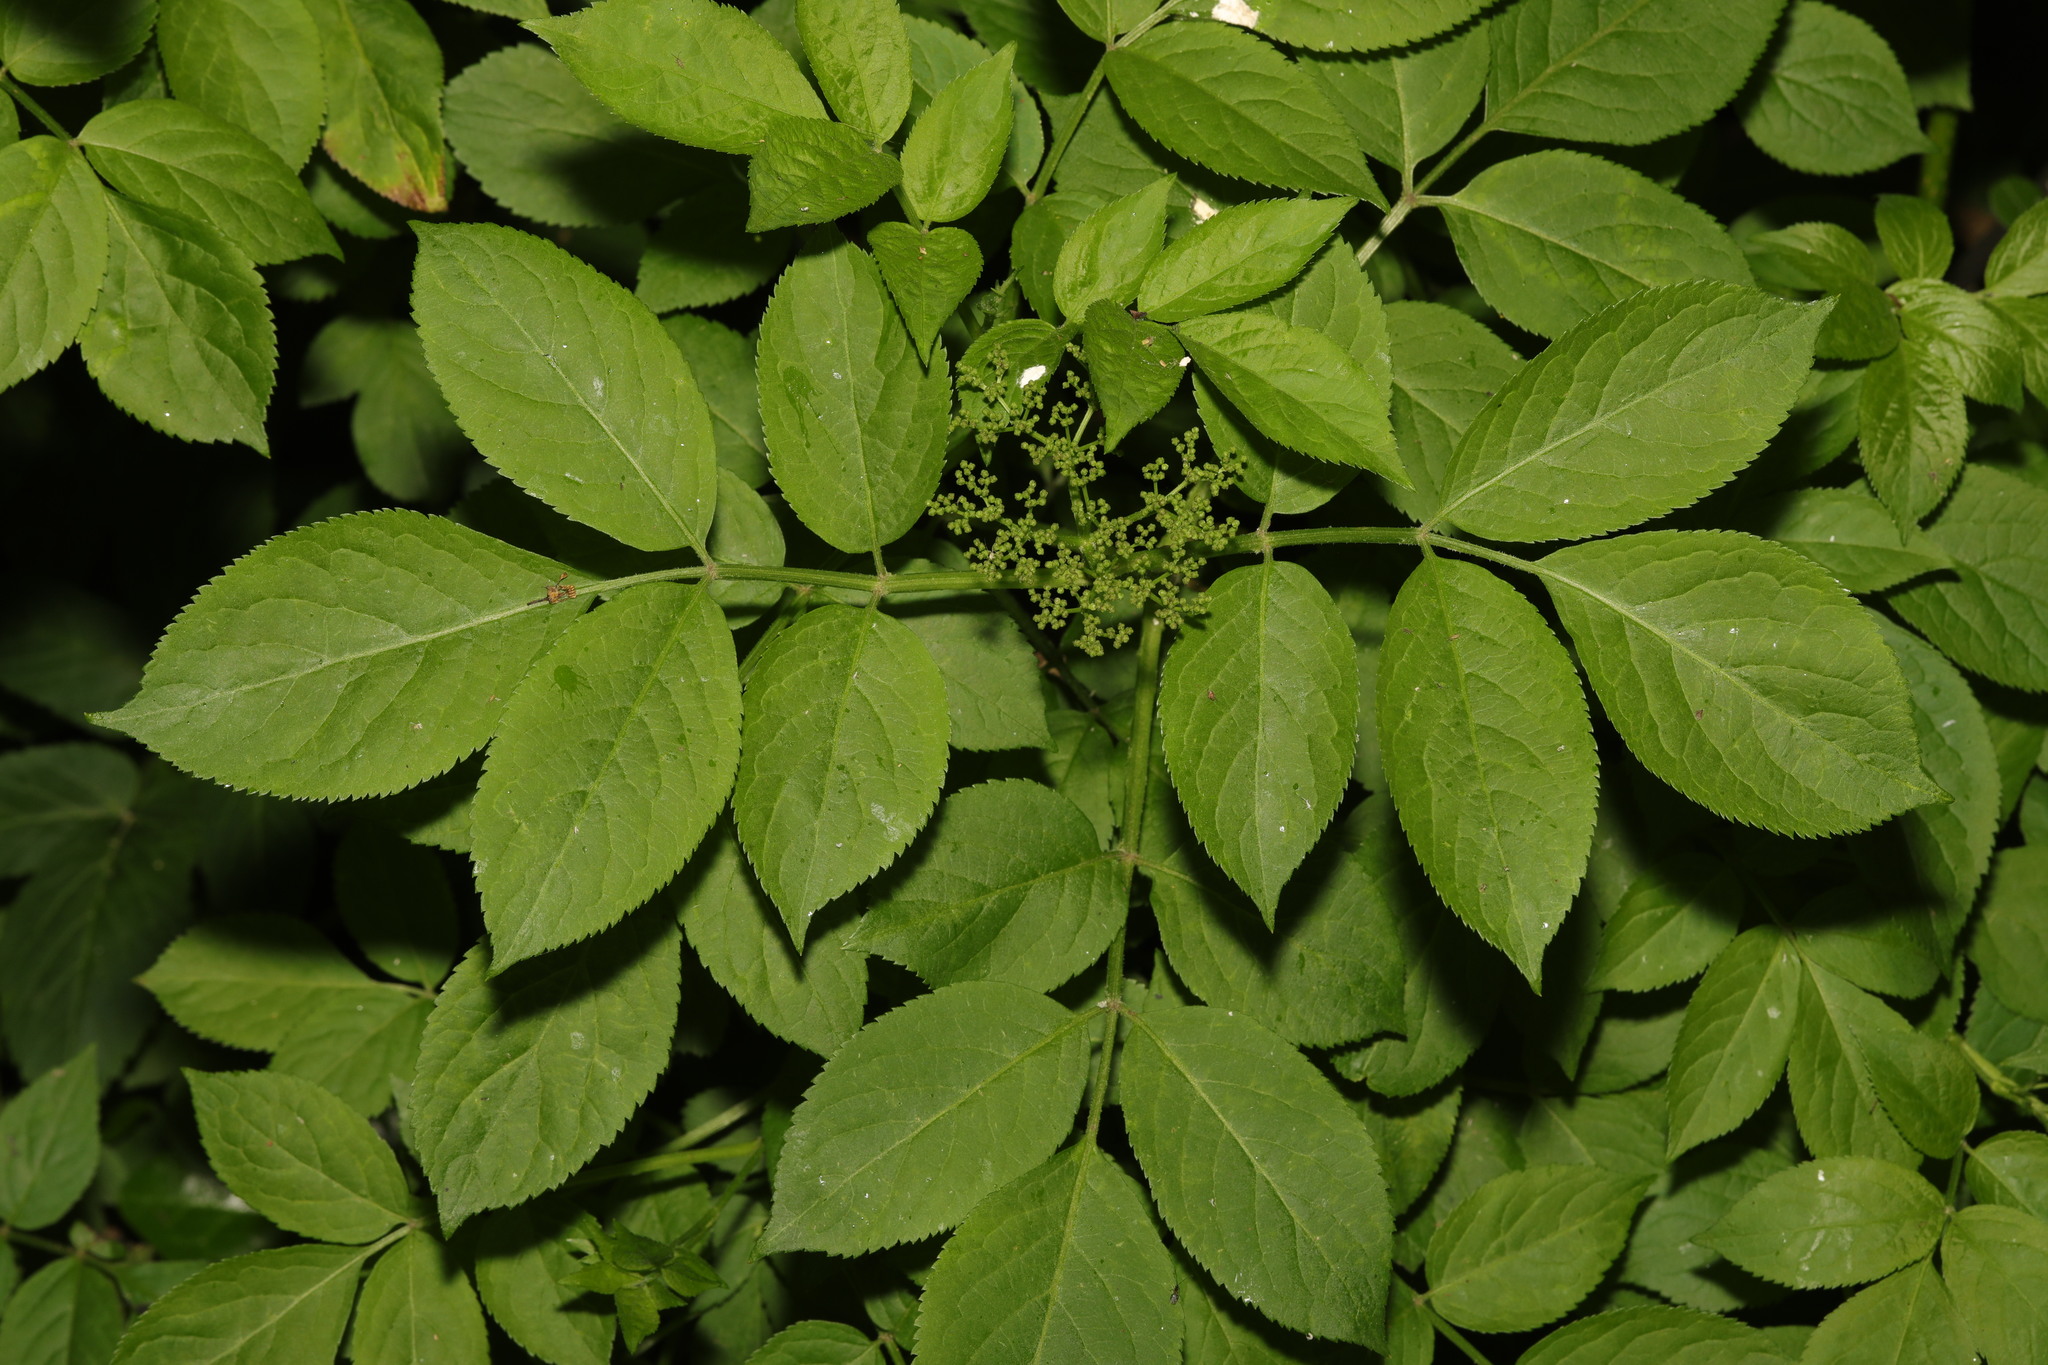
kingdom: Plantae
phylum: Tracheophyta
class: Magnoliopsida
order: Dipsacales
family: Viburnaceae
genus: Sambucus
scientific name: Sambucus nigra
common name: Elder
